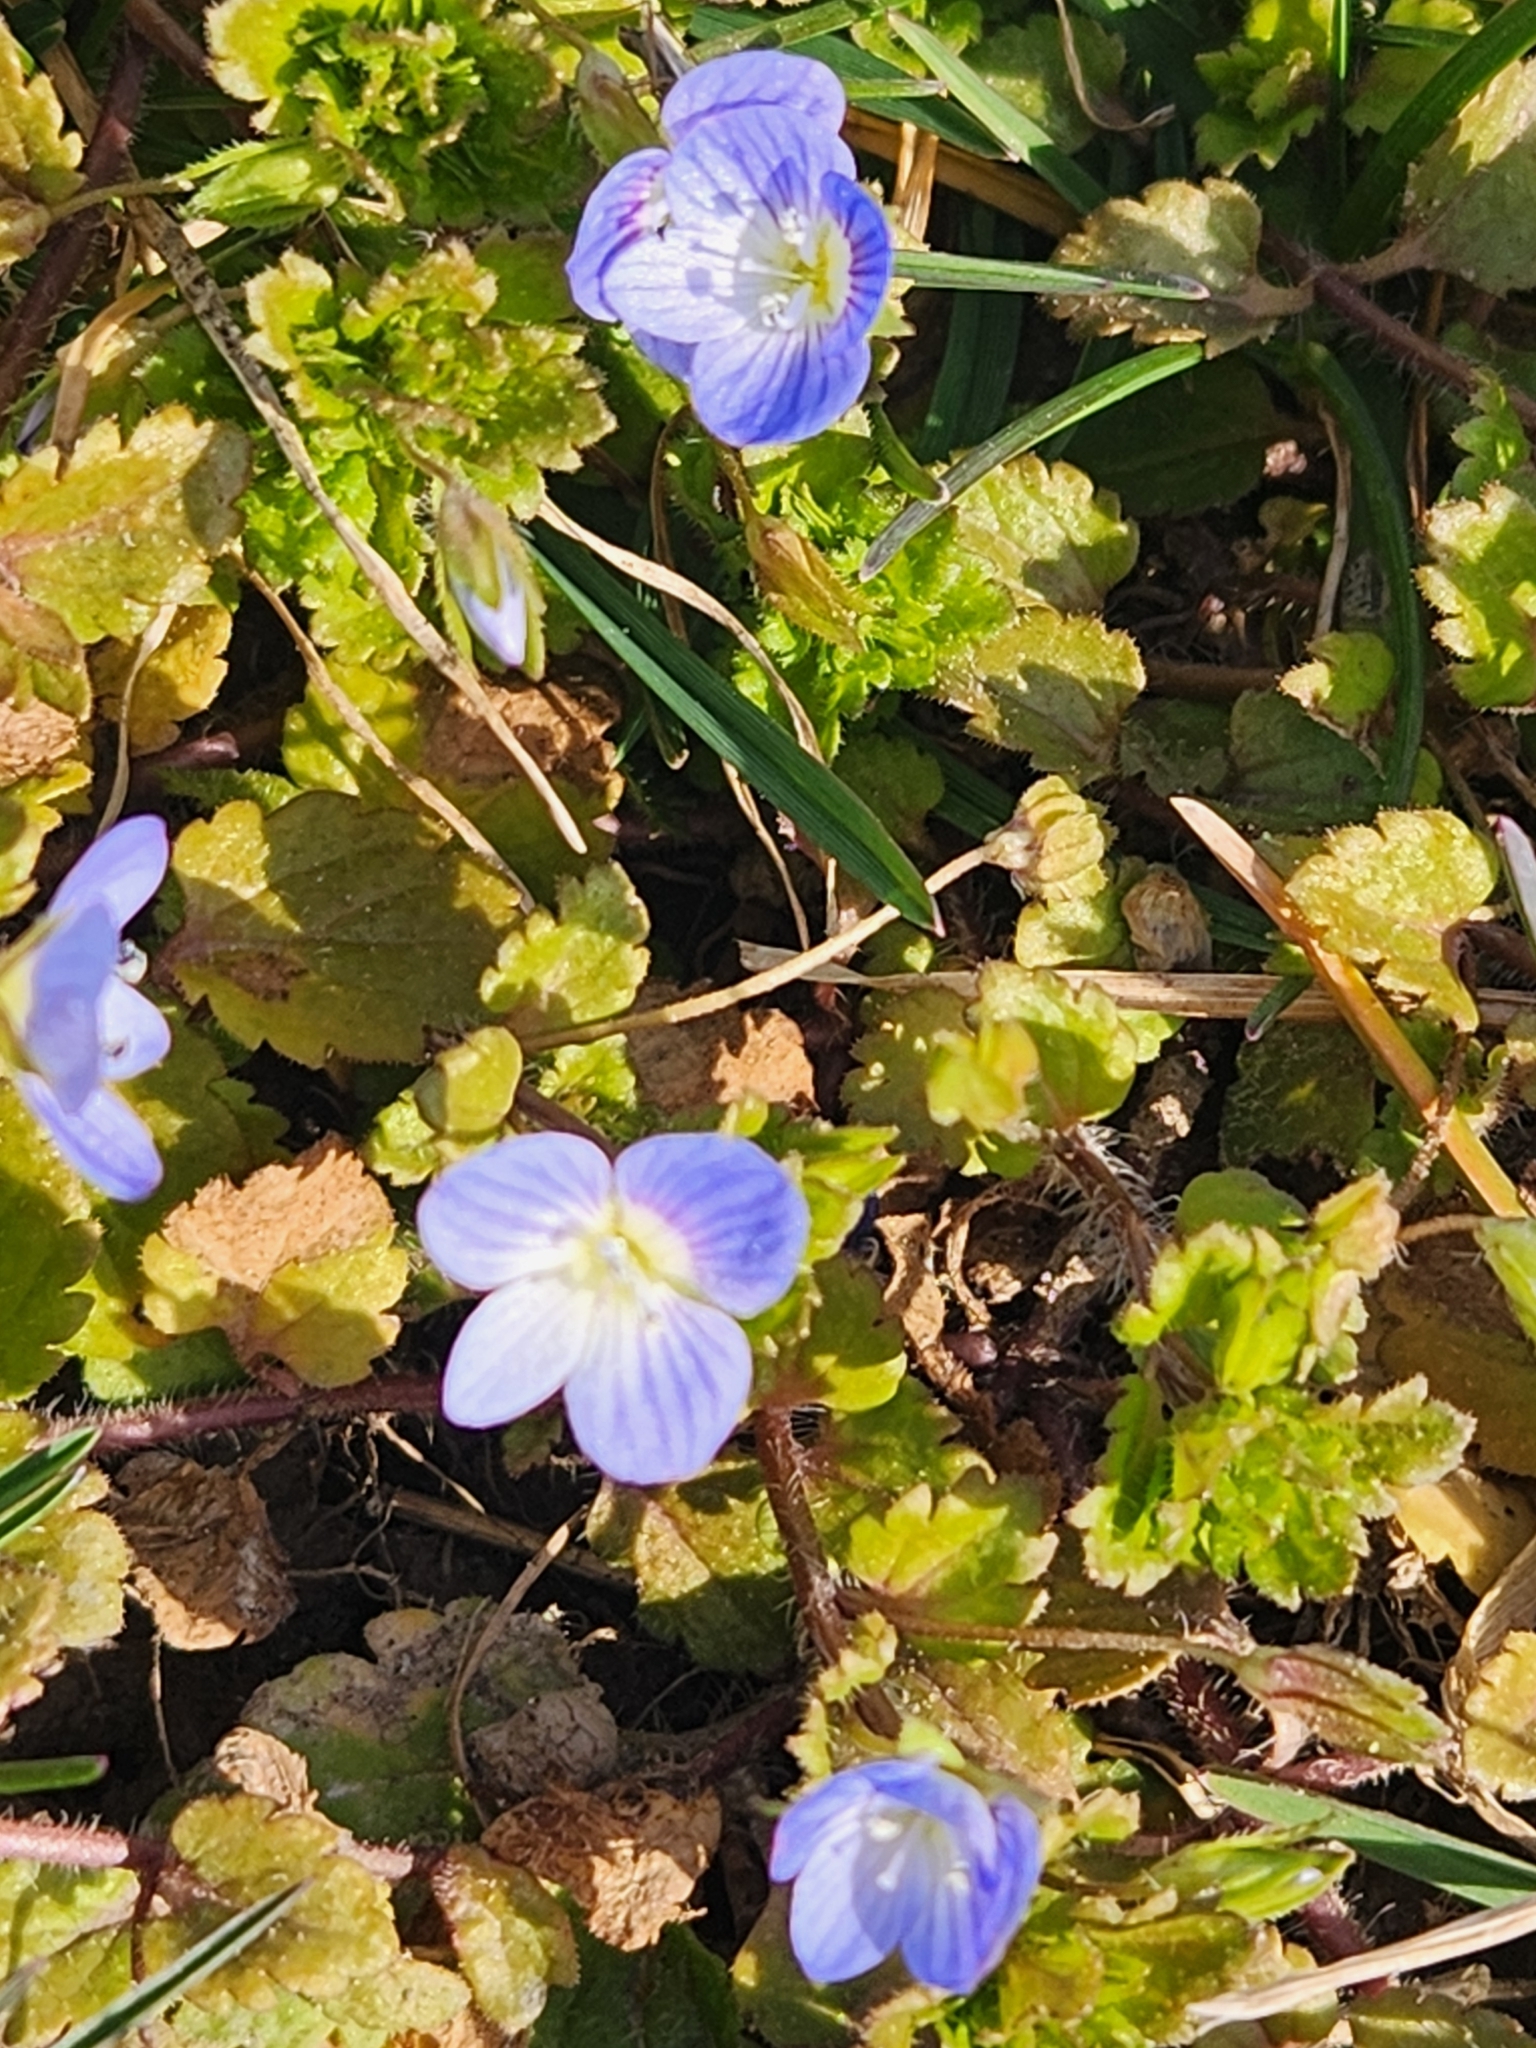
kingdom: Plantae
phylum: Tracheophyta
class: Magnoliopsida
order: Lamiales
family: Plantaginaceae
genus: Veronica
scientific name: Veronica persica
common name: Common field-speedwell
